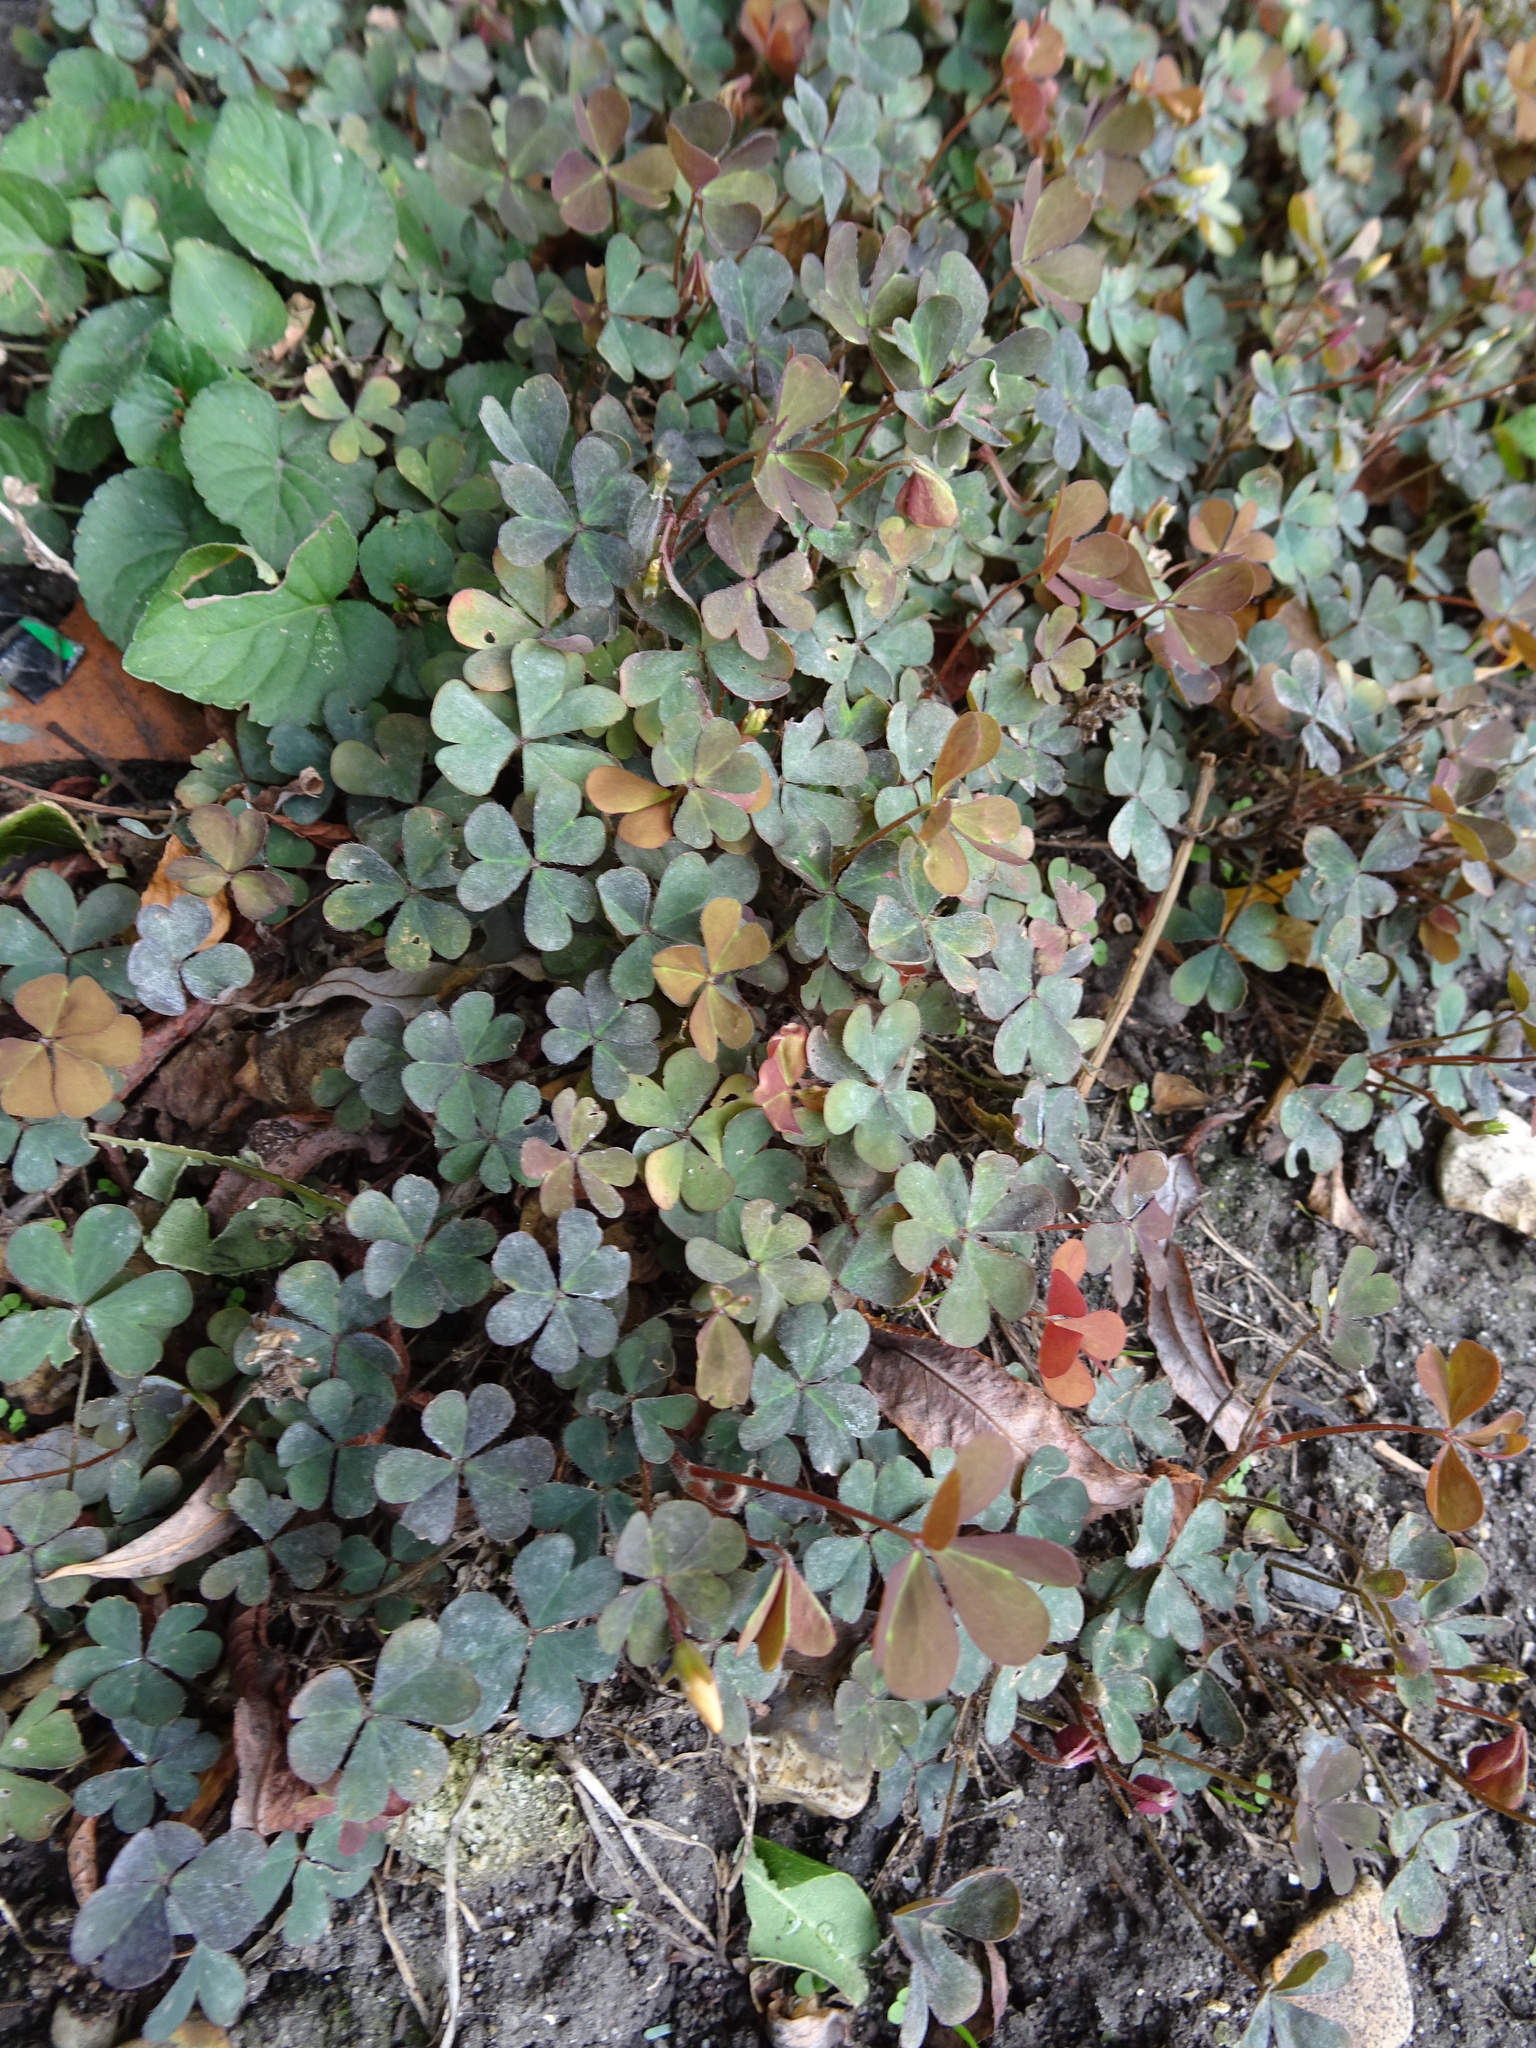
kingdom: Plantae
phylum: Tracheophyta
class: Magnoliopsida
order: Oxalidales
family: Oxalidaceae
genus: Oxalis
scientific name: Oxalis corniculata
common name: Procumbent yellow-sorrel
